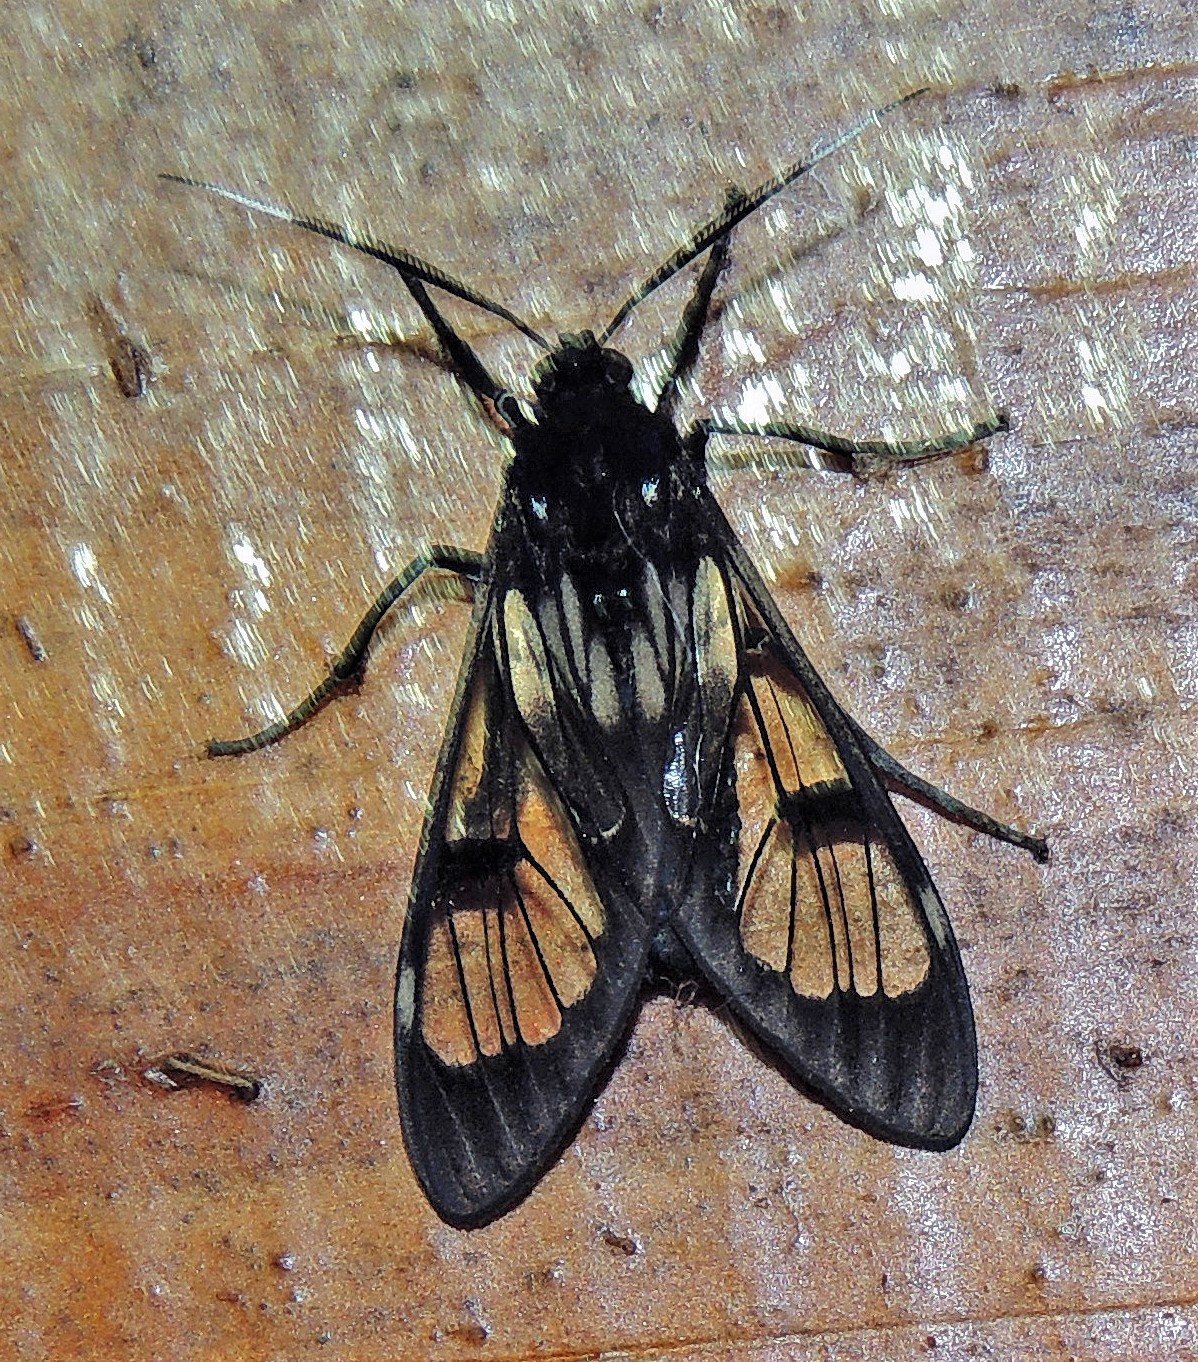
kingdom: Animalia
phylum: Arthropoda
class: Insecta
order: Lepidoptera
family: Erebidae
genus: Neotrichura
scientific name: Neotrichura nigripes
